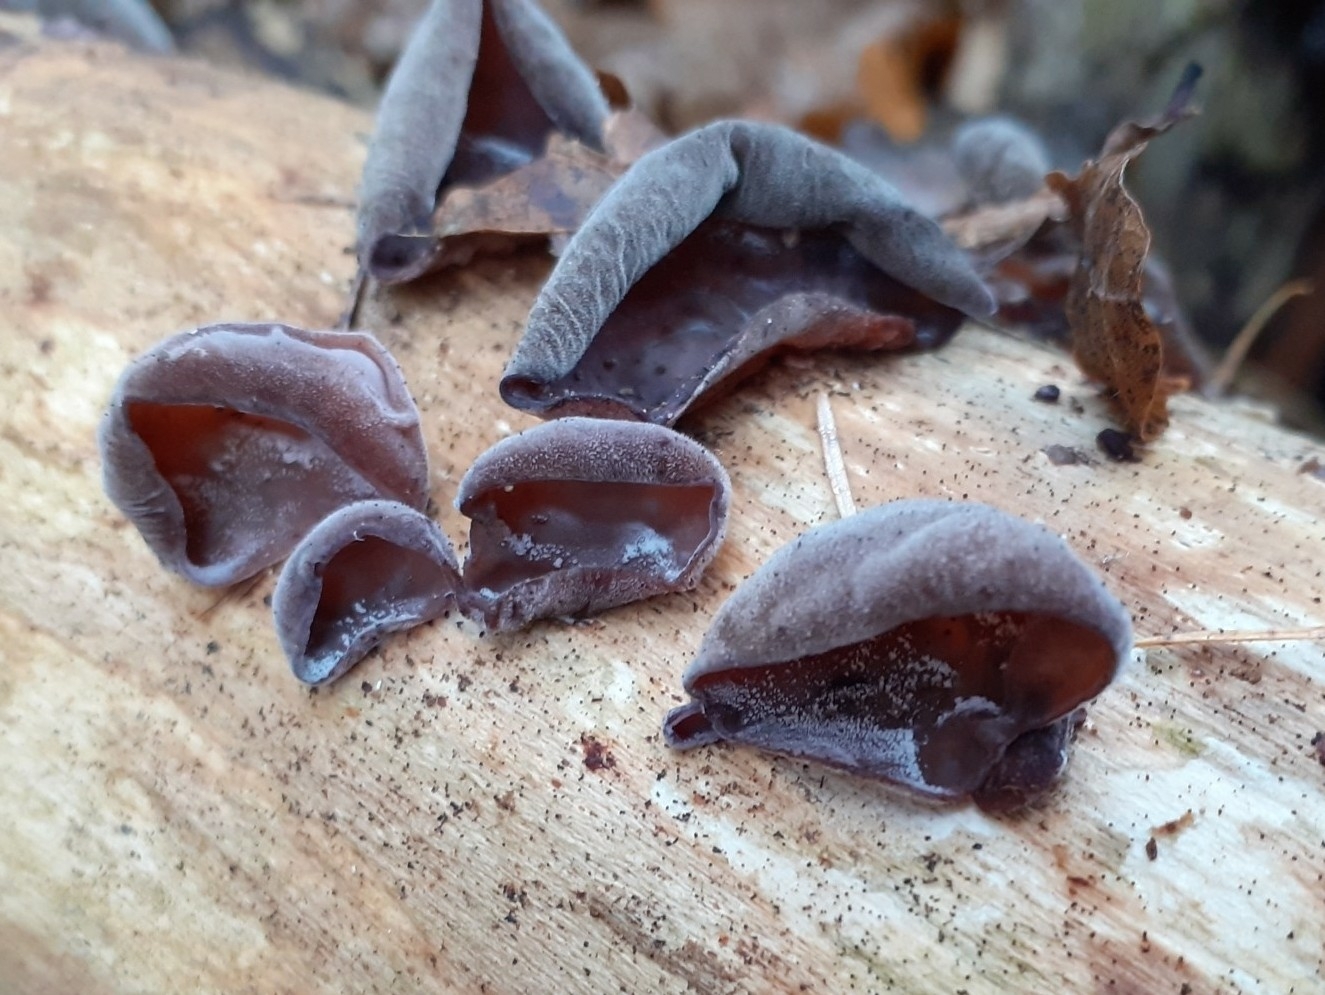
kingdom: Fungi
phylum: Basidiomycota
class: Agaricomycetes
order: Auriculariales
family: Auriculariaceae
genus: Auricularia
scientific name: Auricularia auricula-judae
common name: Jelly ear
